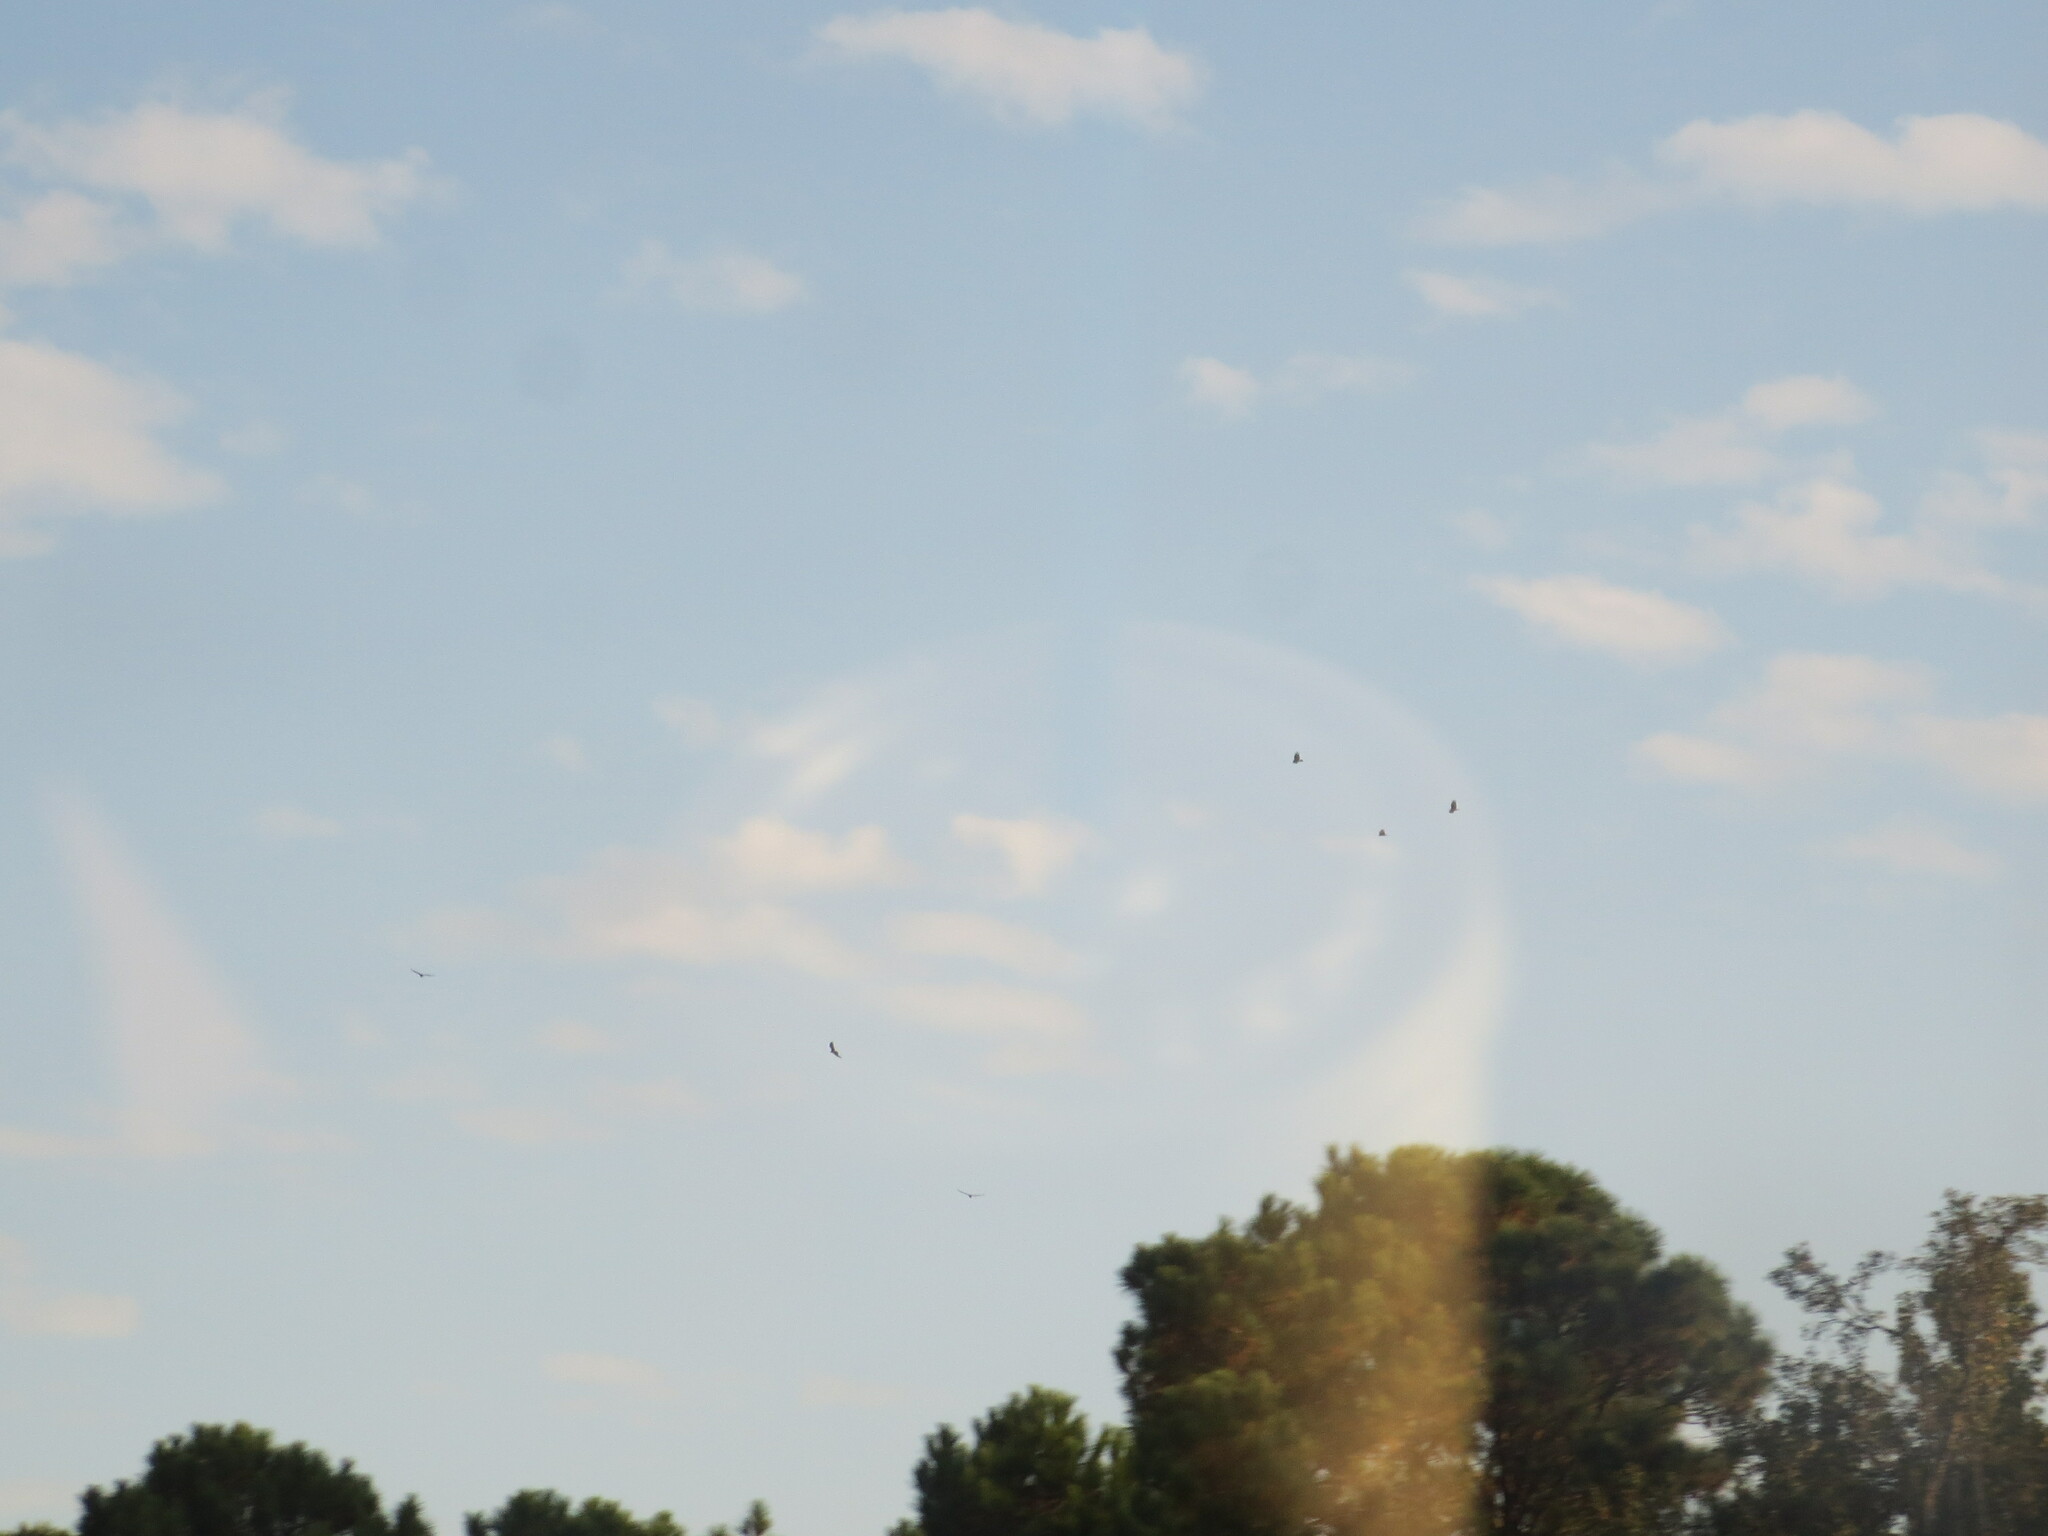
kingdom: Animalia
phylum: Chordata
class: Aves
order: Accipitriformes
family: Cathartidae
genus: Cathartes
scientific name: Cathartes aura
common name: Turkey vulture
